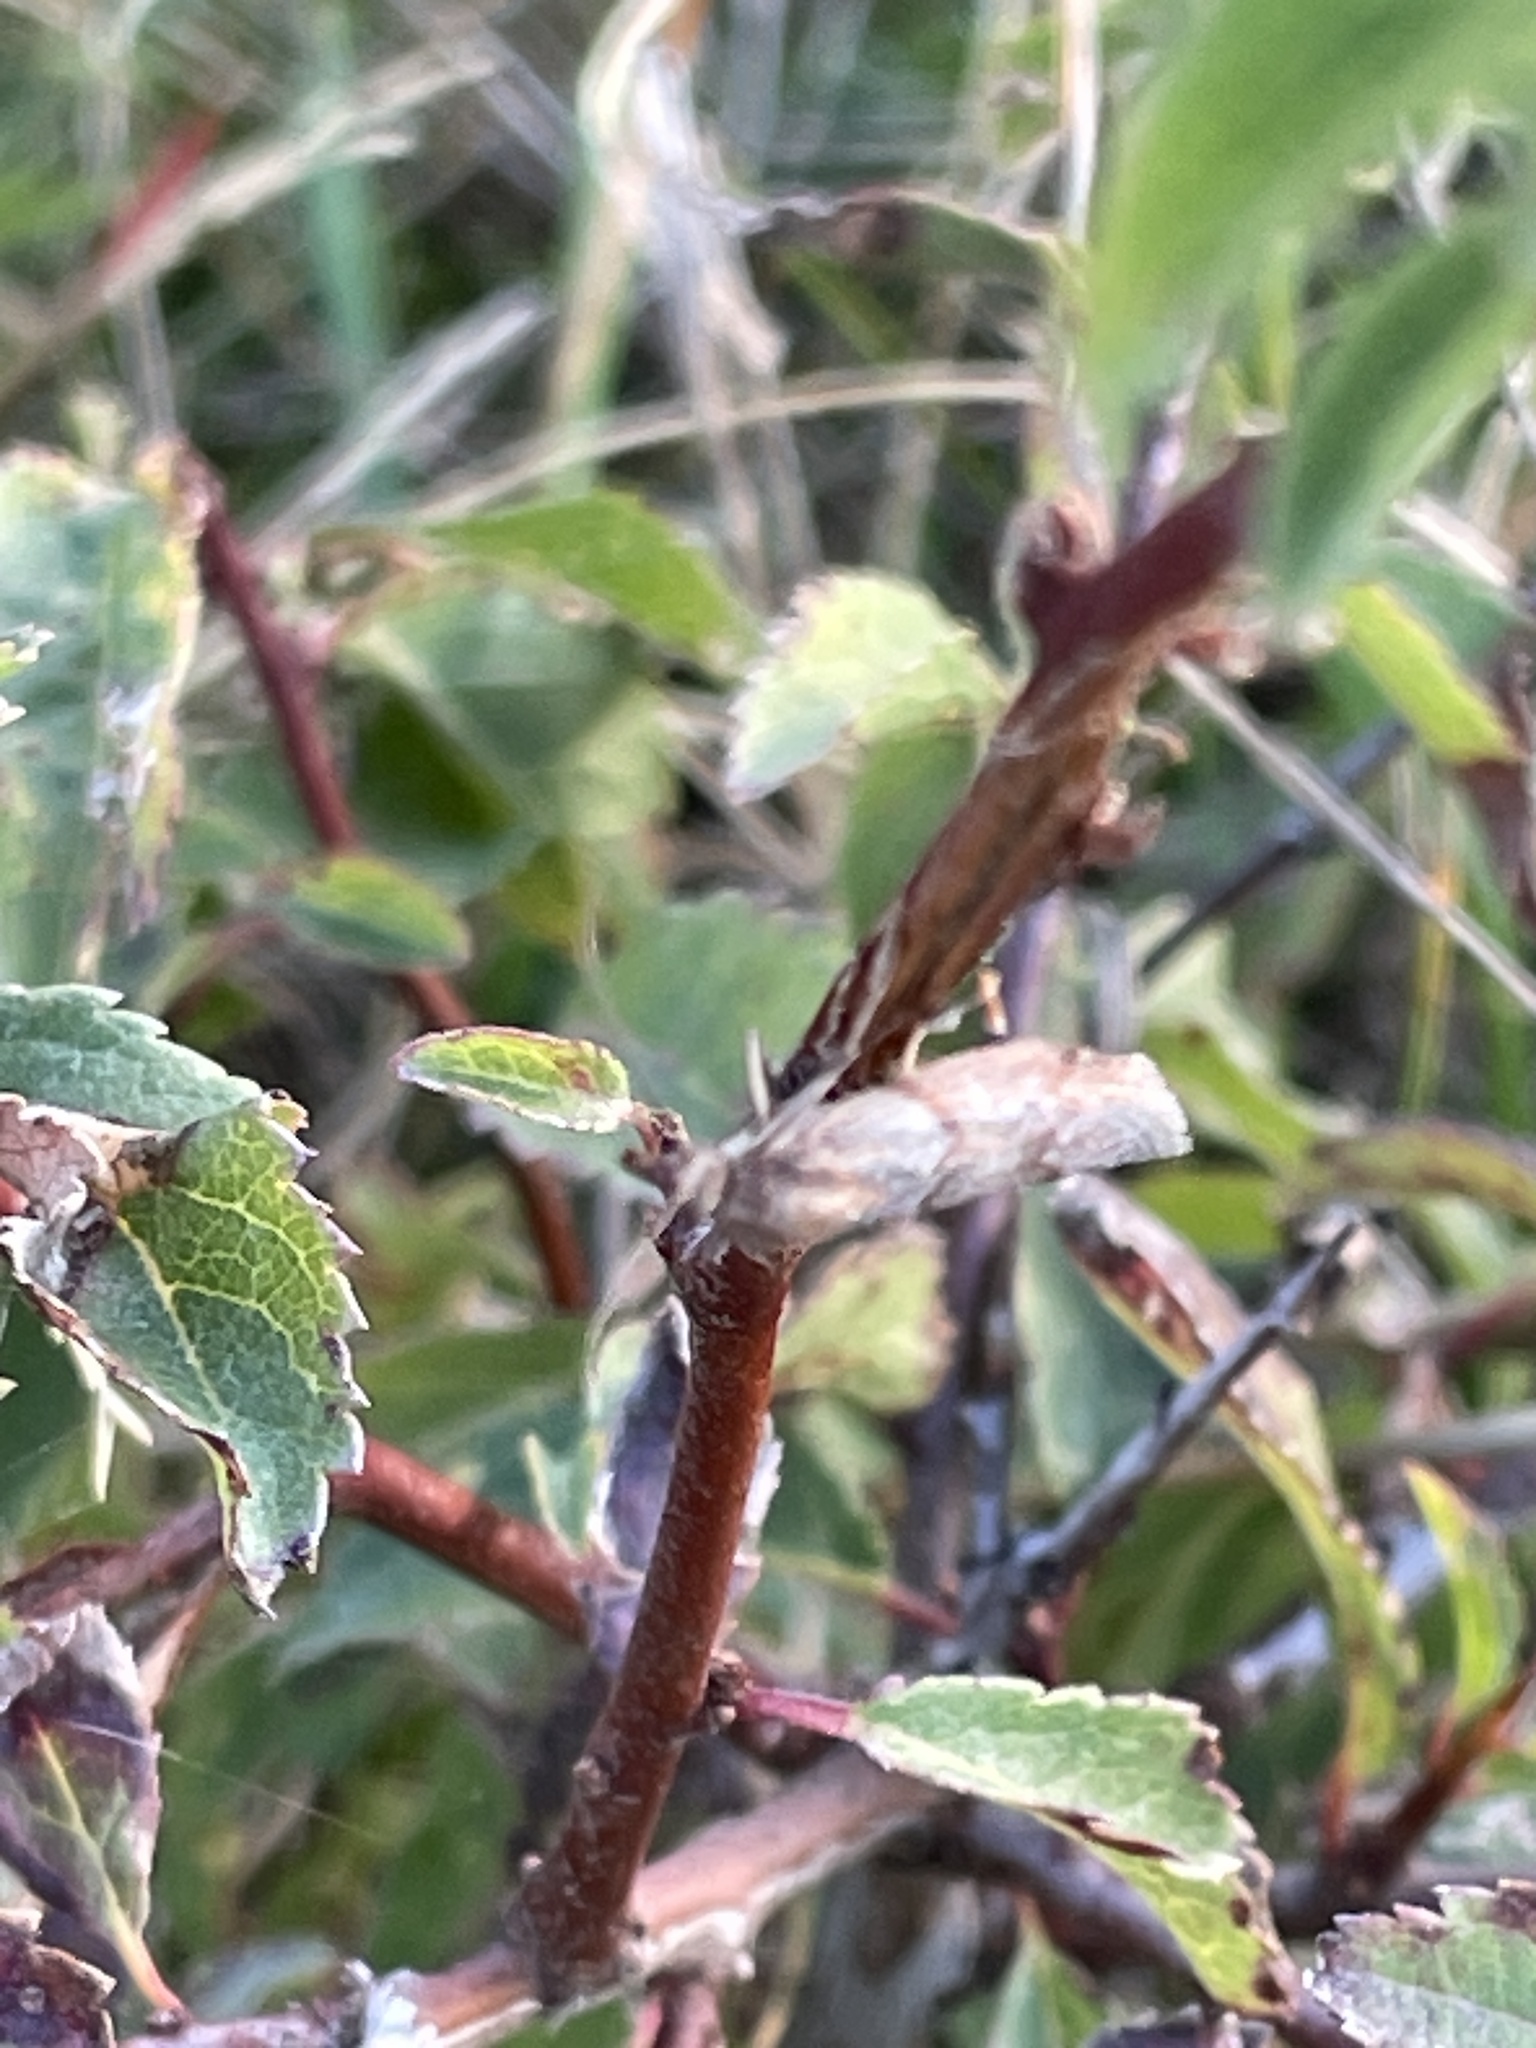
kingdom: Animalia
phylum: Arthropoda
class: Insecta
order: Lepidoptera
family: Pyralidae
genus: Selagia
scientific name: Selagia spadicella
